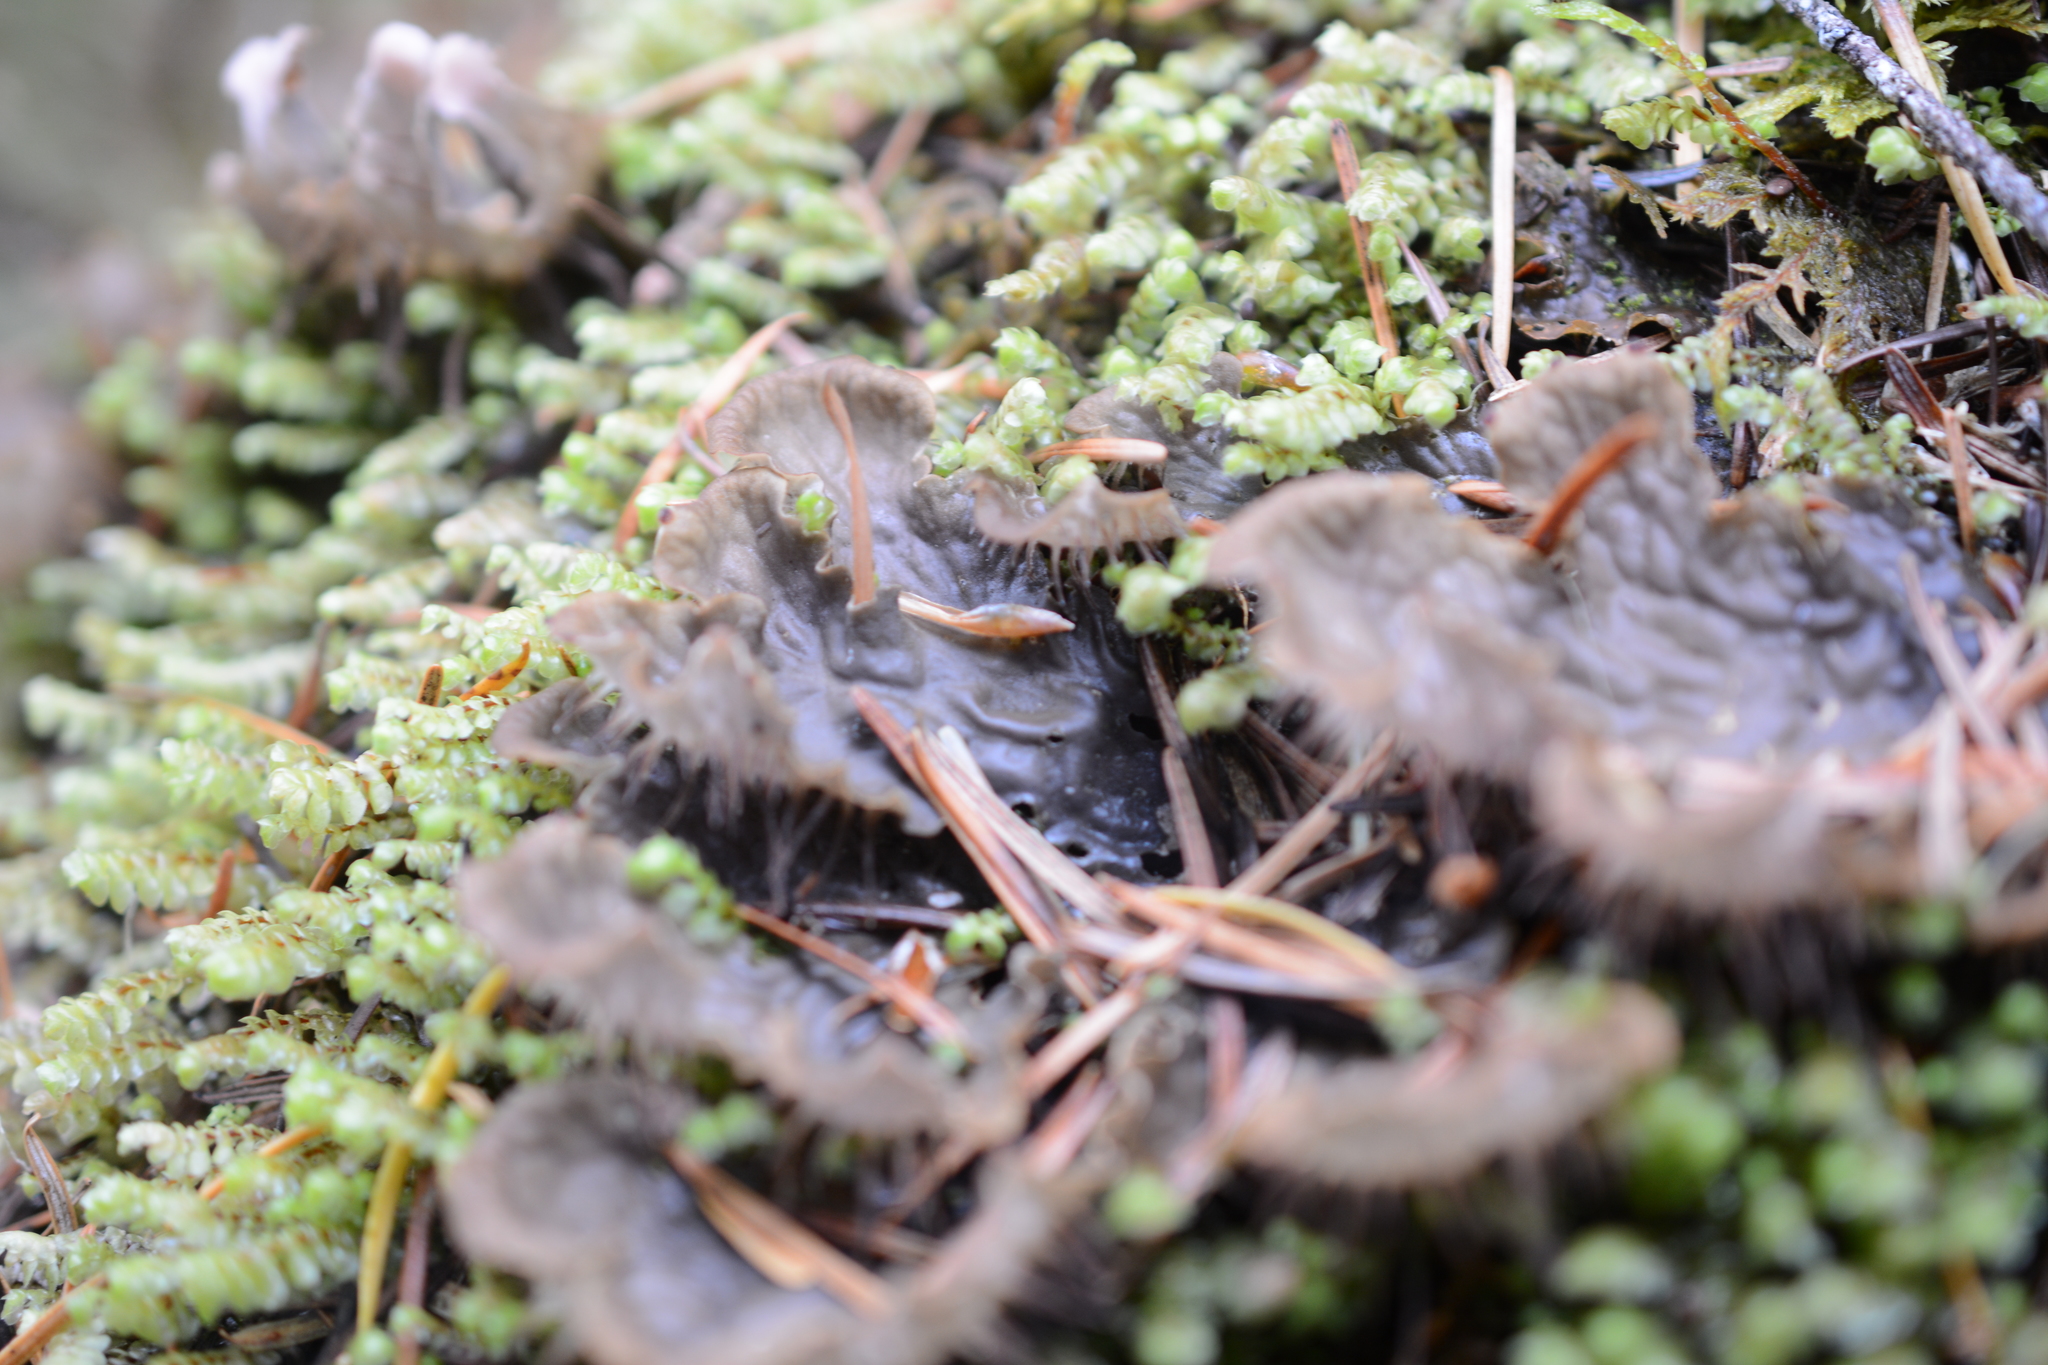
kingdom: Fungi
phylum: Ascomycota
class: Lecanoromycetes
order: Peltigerales
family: Peltigeraceae
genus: Peltigera
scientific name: Peltigera membranacea
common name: Membranous pelt lichen
